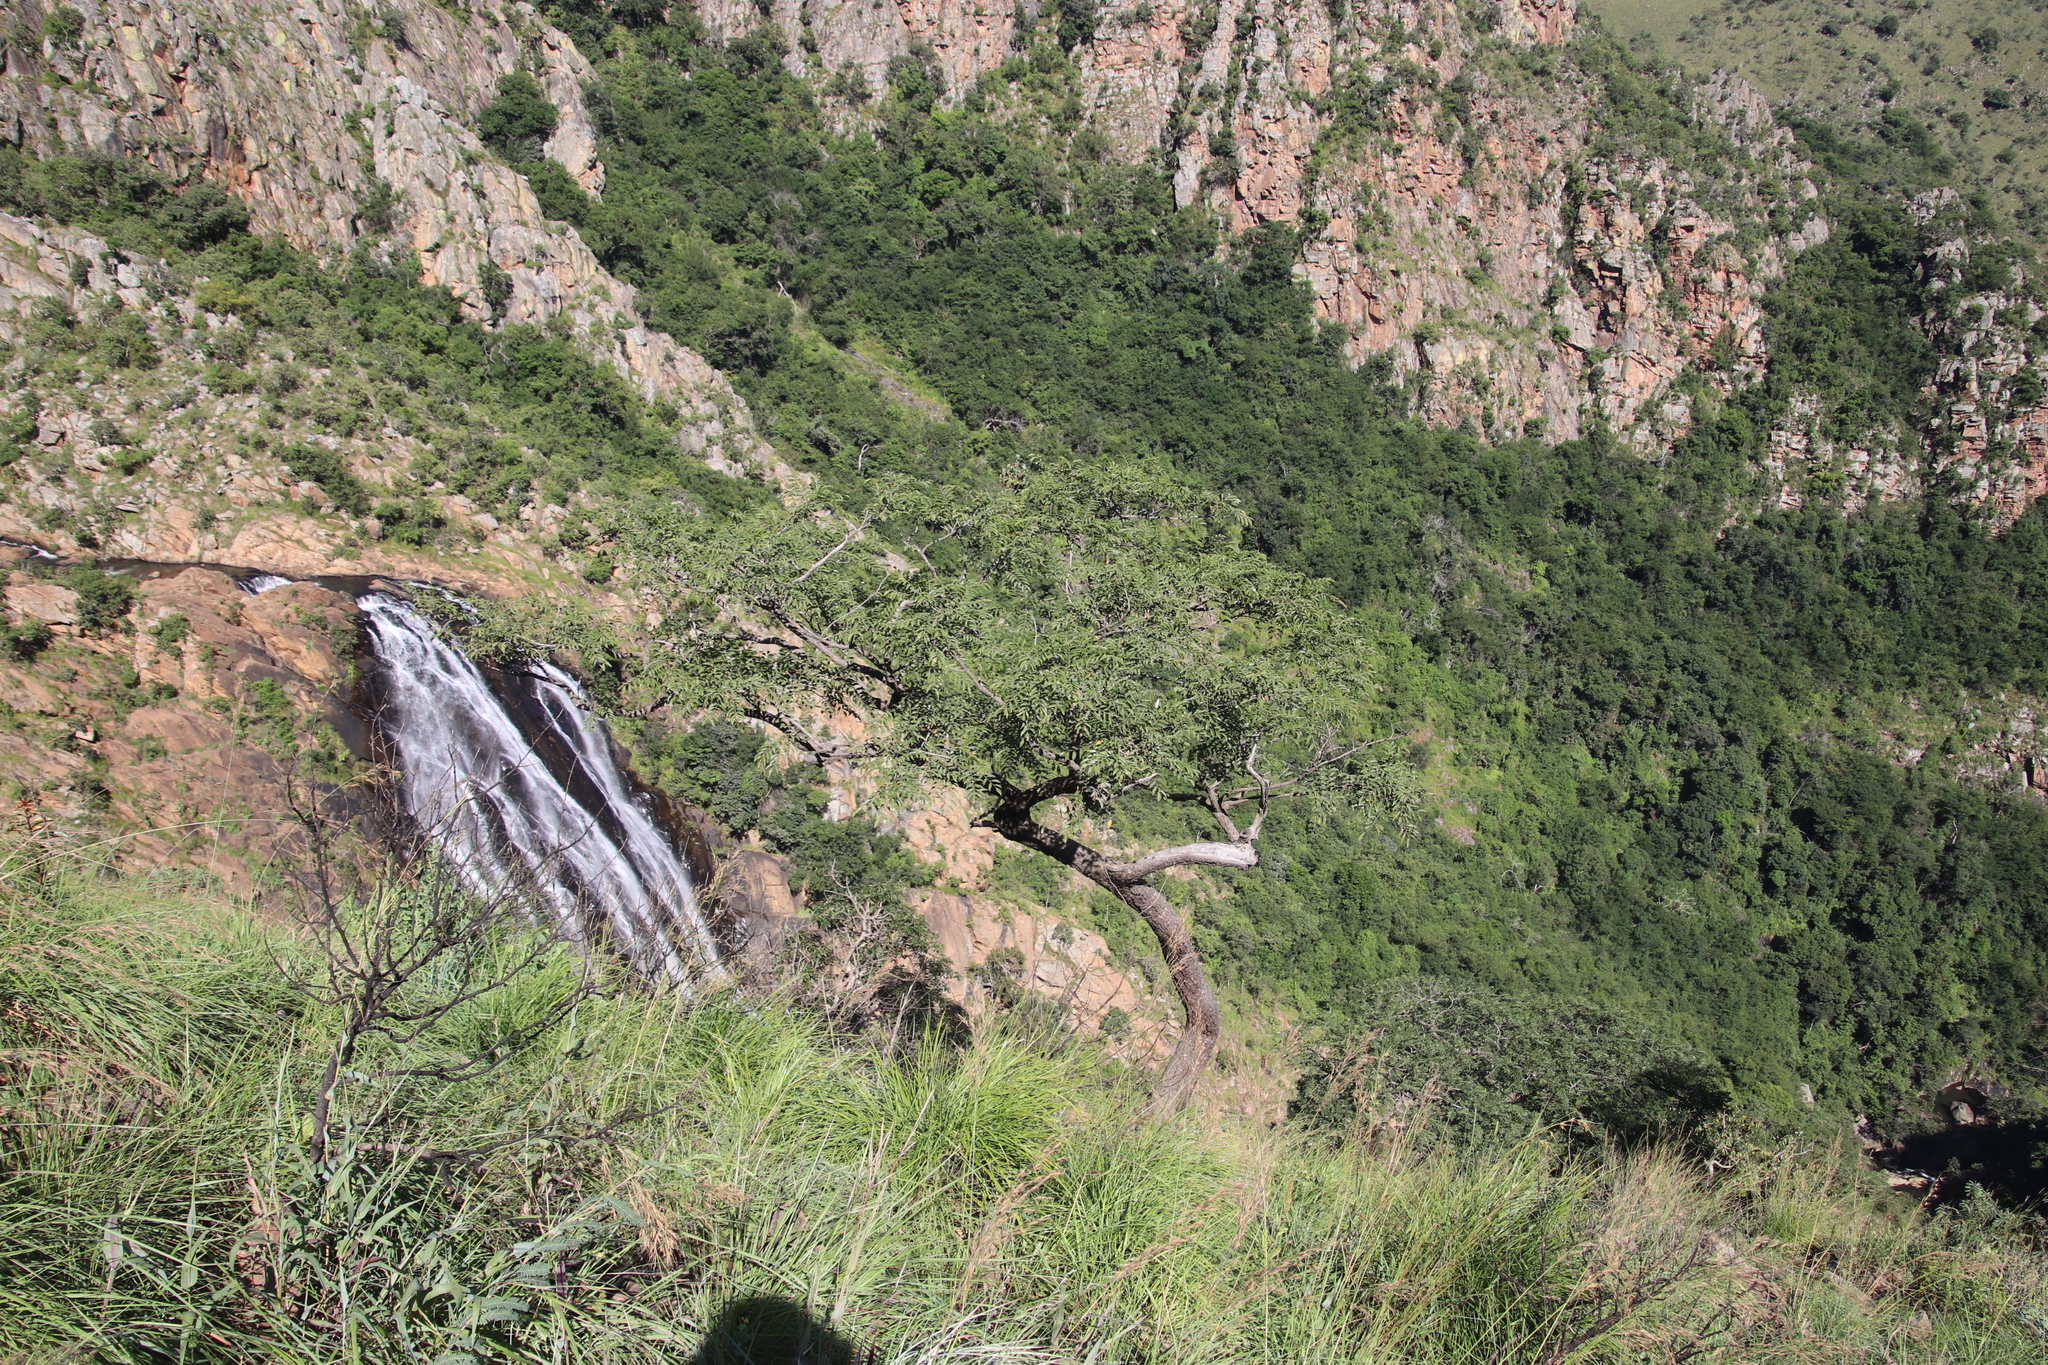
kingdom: Plantae
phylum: Tracheophyta
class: Magnoliopsida
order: Fabales
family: Fabaceae
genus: Pterocarpus
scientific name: Pterocarpus angolensis
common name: Bloodwood tree
